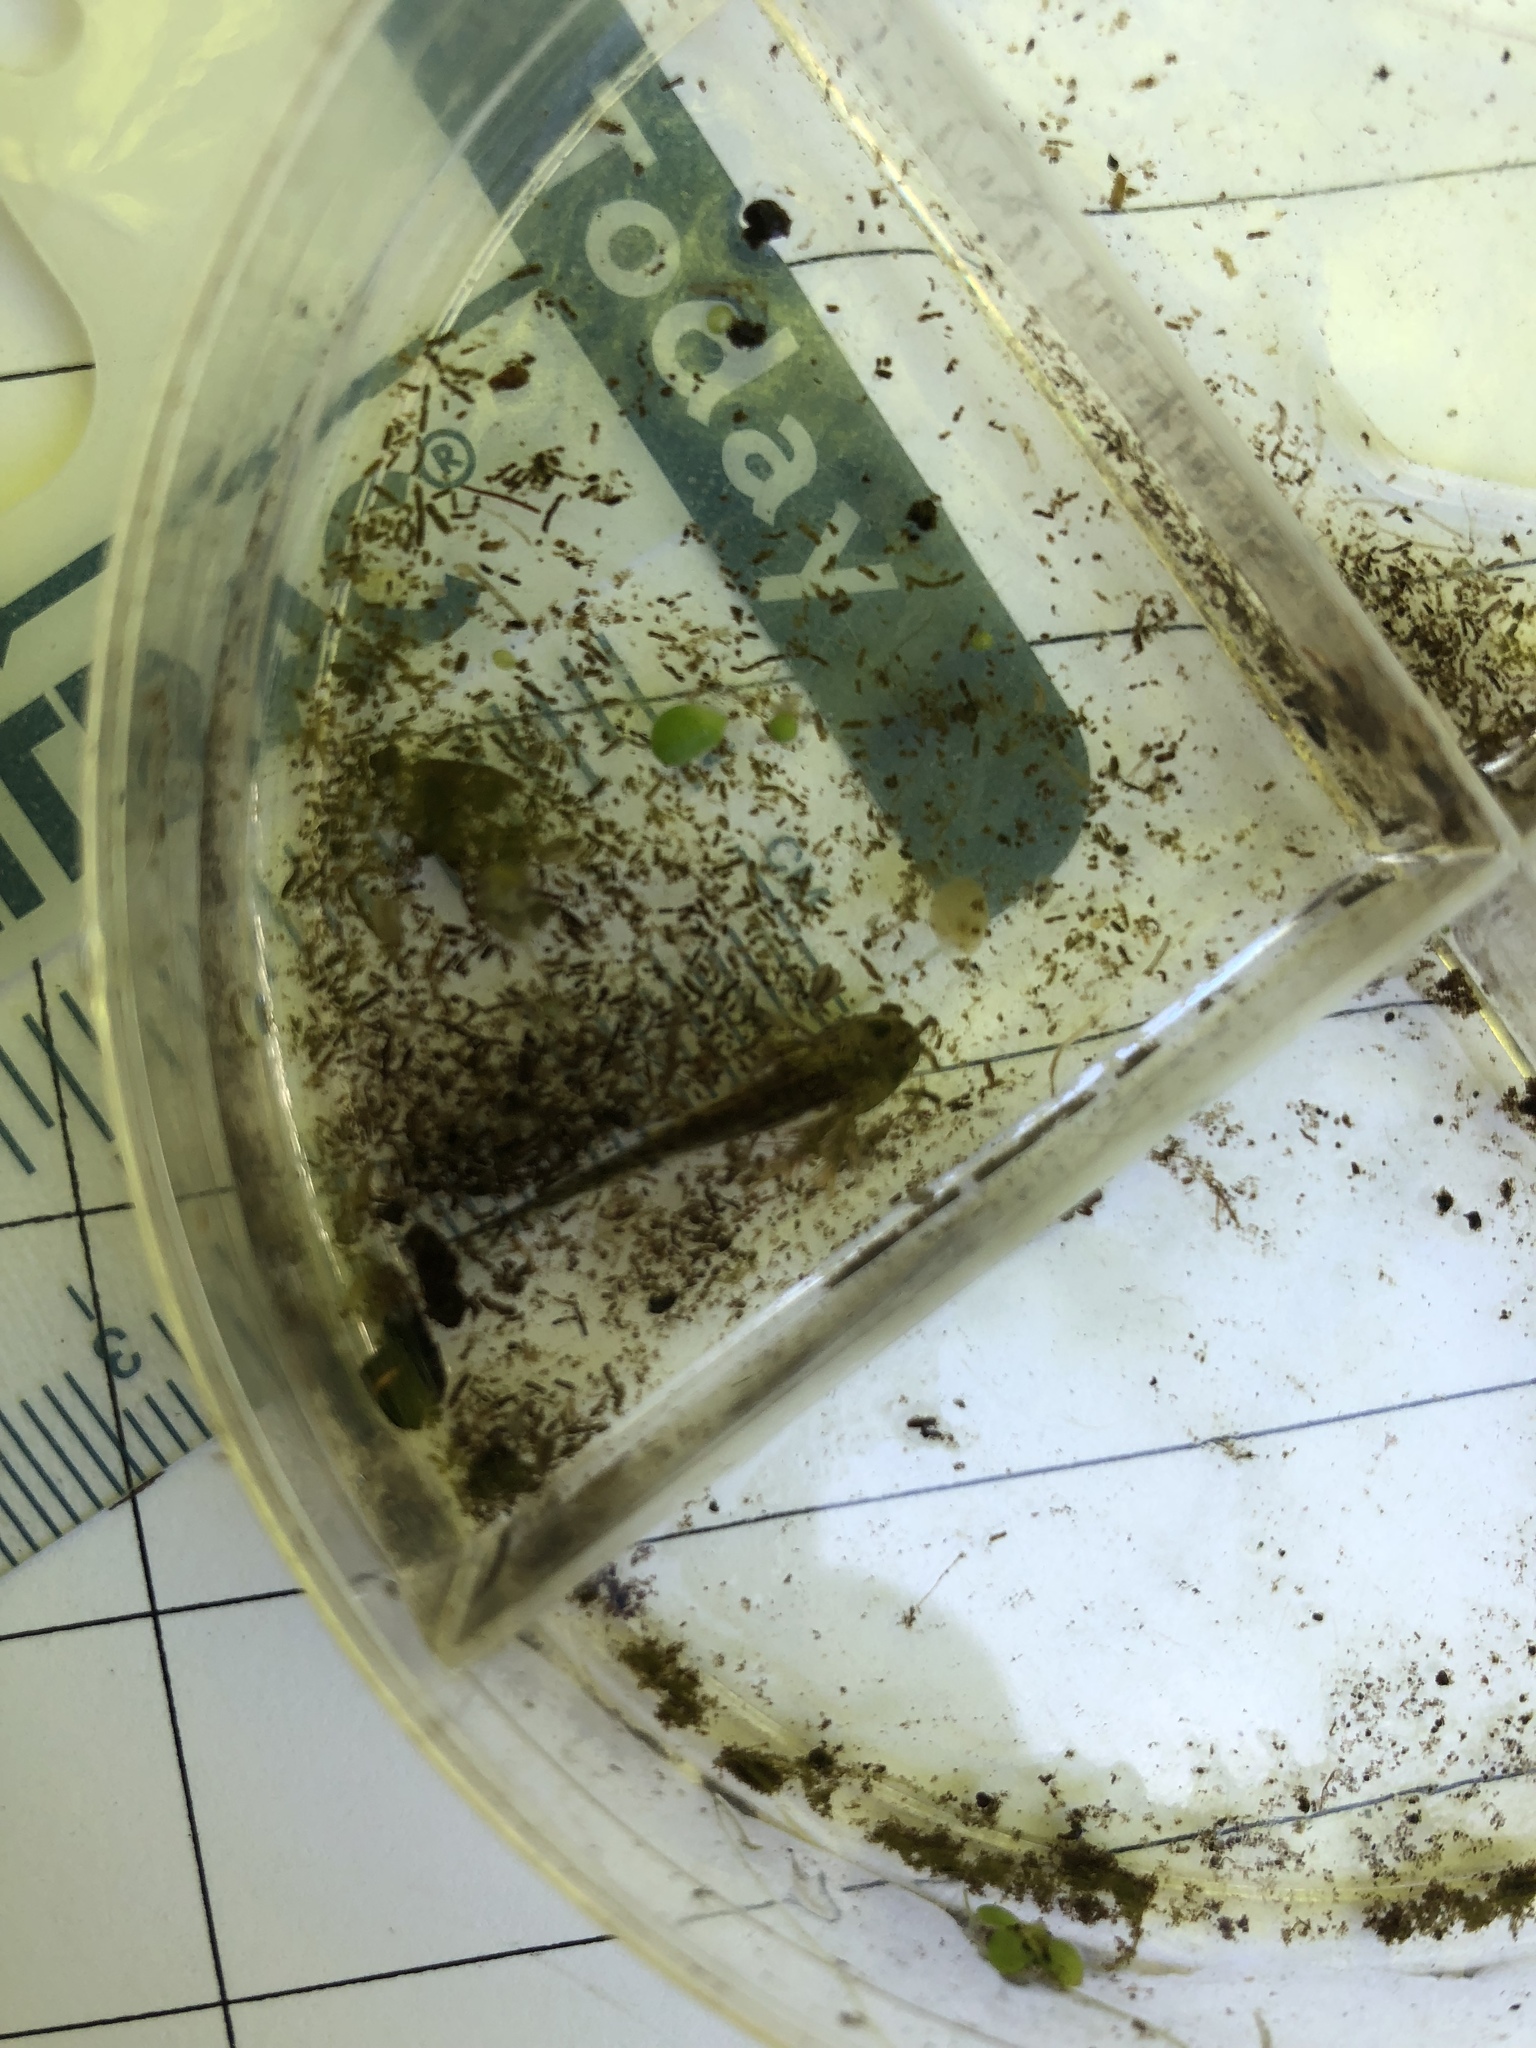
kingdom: Animalia
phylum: Chordata
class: Amphibia
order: Caudata
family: Ambystomatidae
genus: Ambystoma
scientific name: Ambystoma maculatum
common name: Spotted salamander
